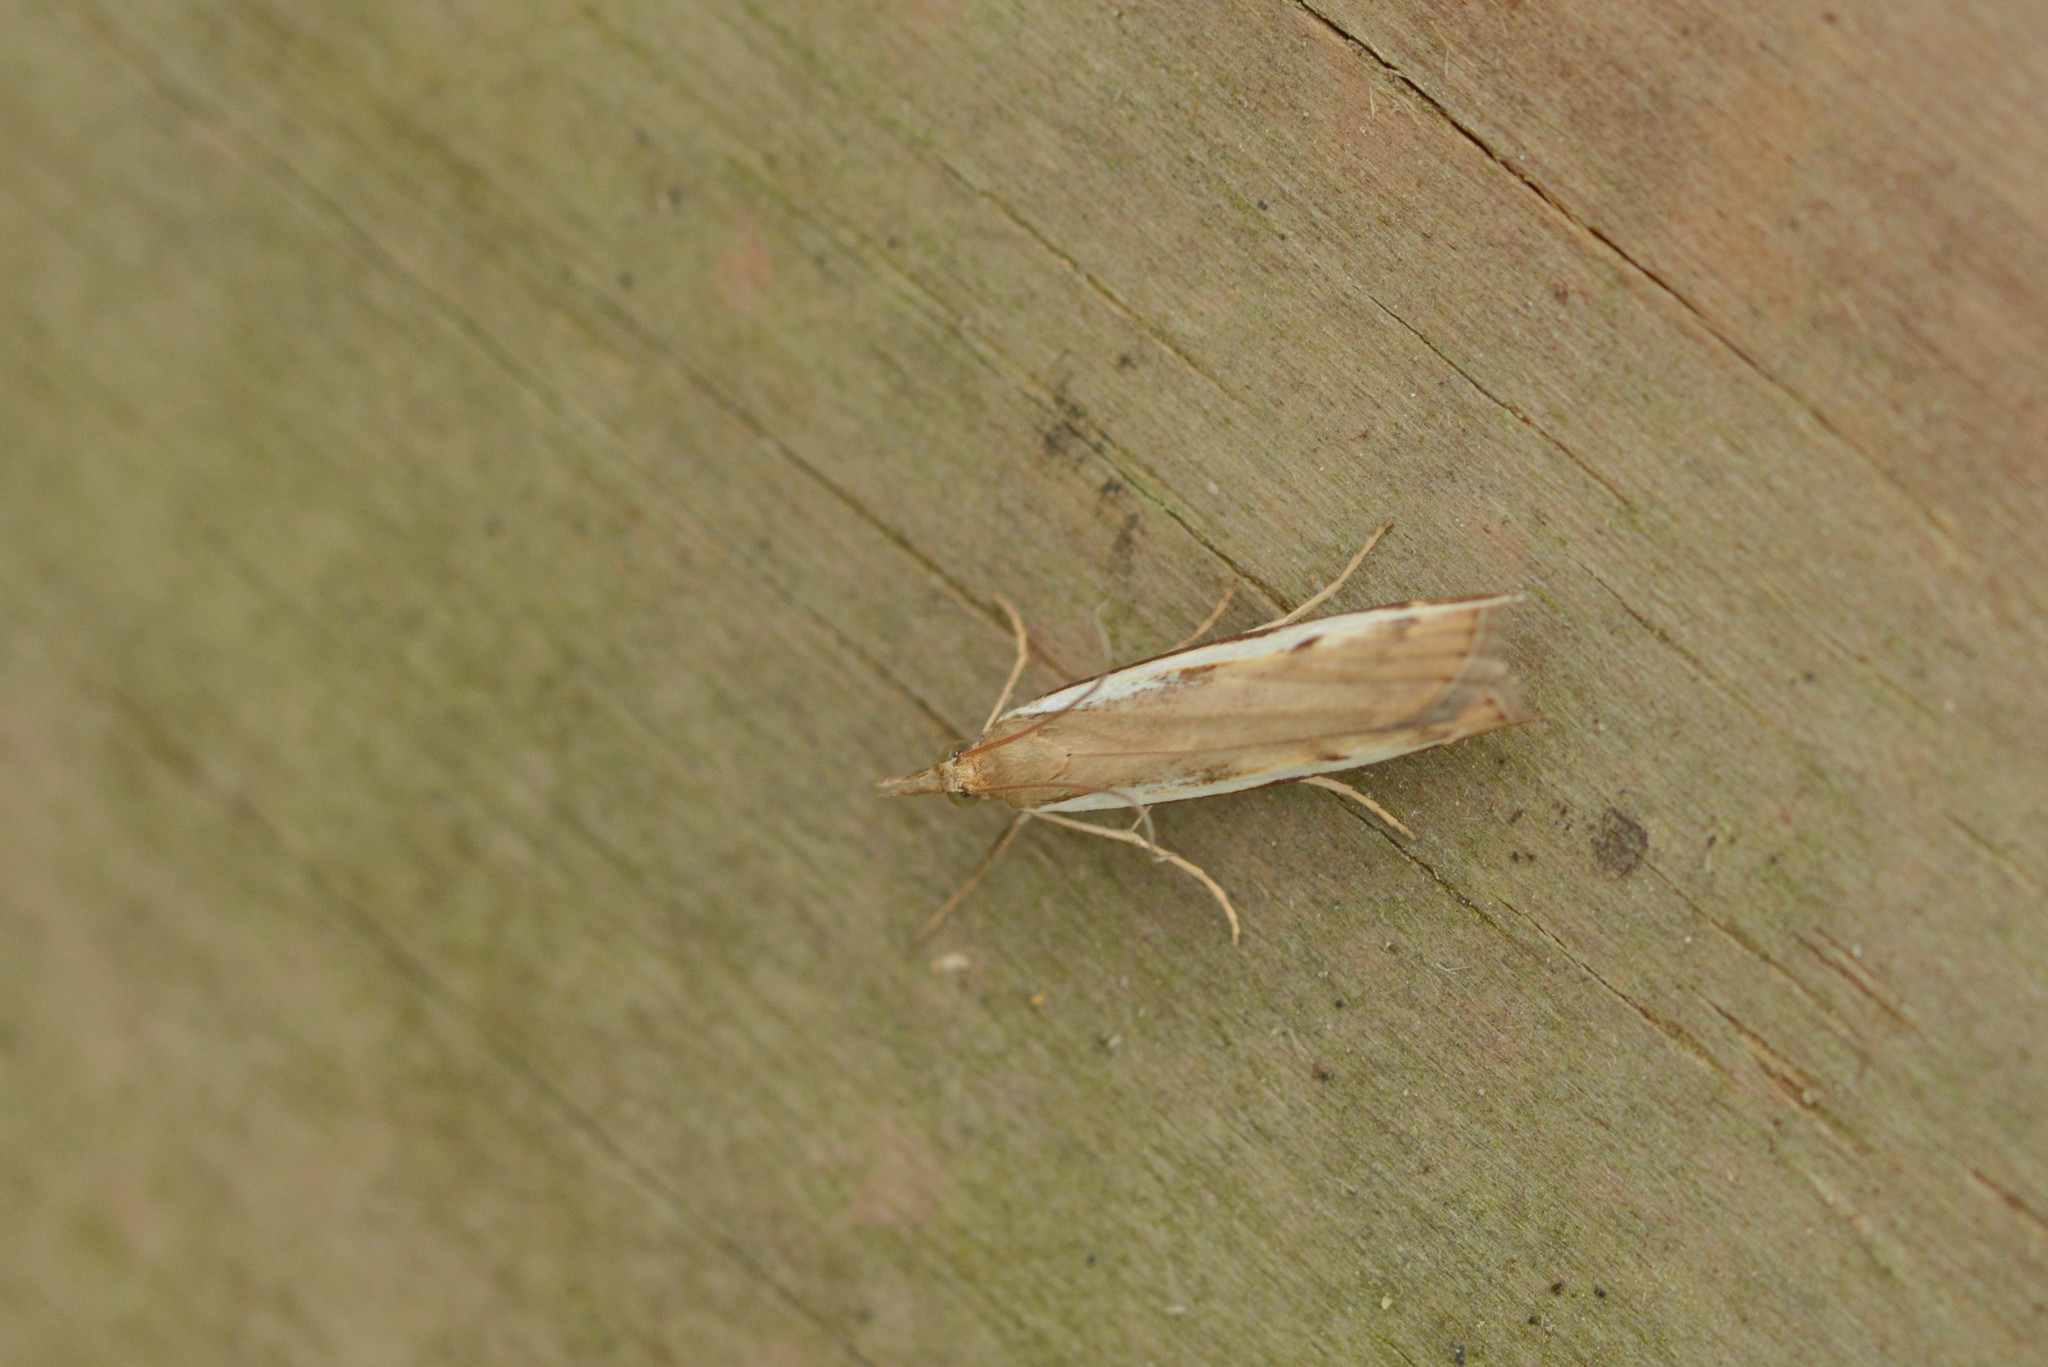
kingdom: Animalia
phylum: Arthropoda
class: Insecta
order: Lepidoptera
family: Crambidae
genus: Orocrambus
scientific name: Orocrambus flexuosellus
